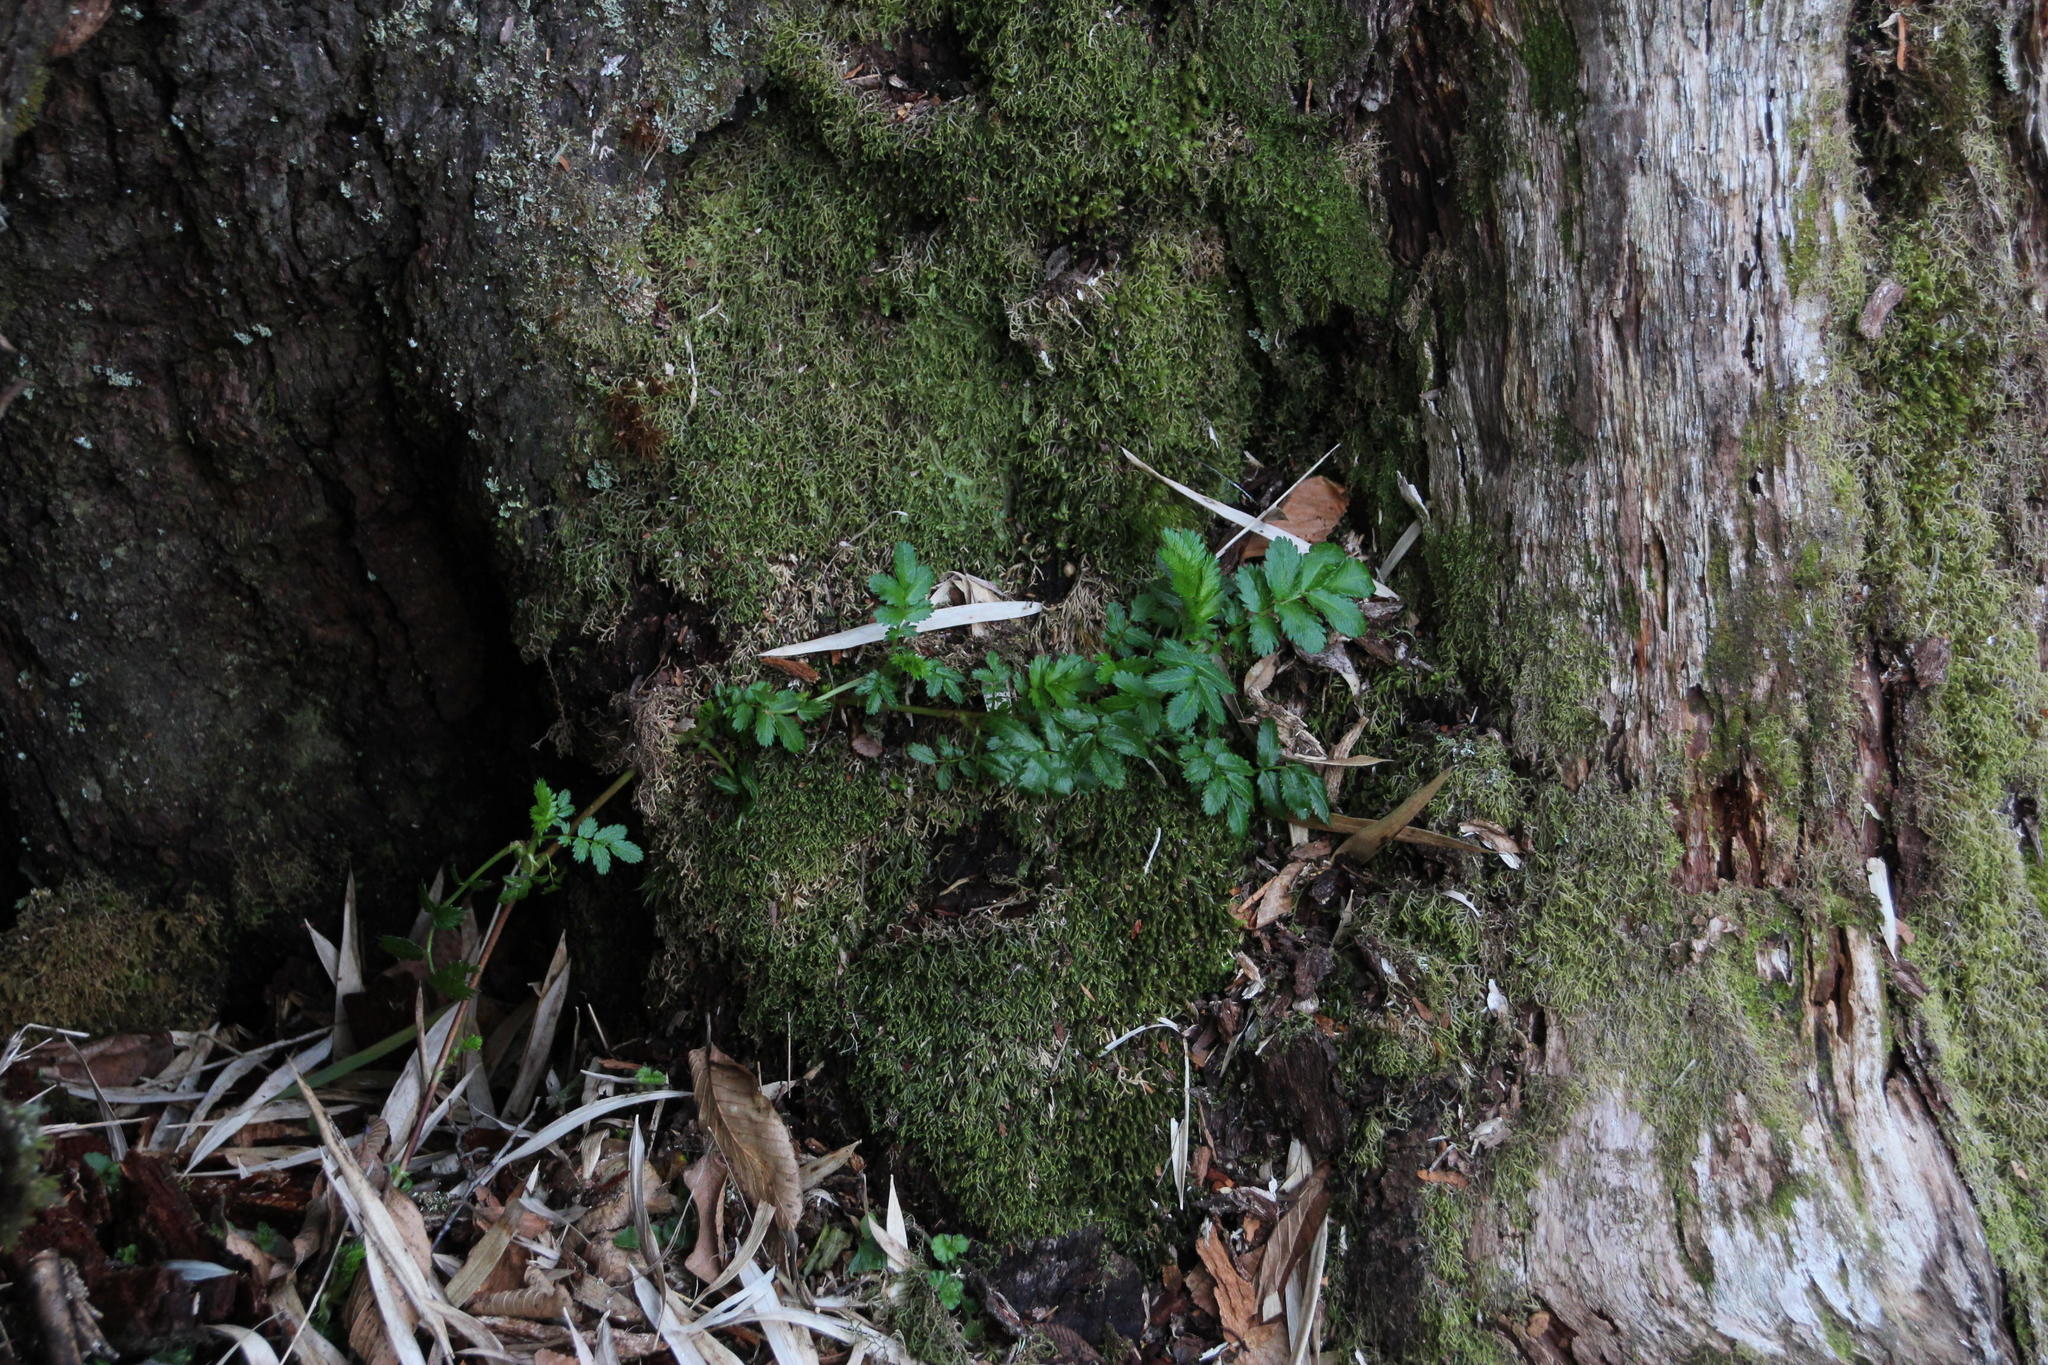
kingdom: Plantae
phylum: Tracheophyta
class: Magnoliopsida
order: Rosales
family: Rosaceae
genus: Acaena
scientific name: Acaena ovalifolia
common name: Two-spined acaena
